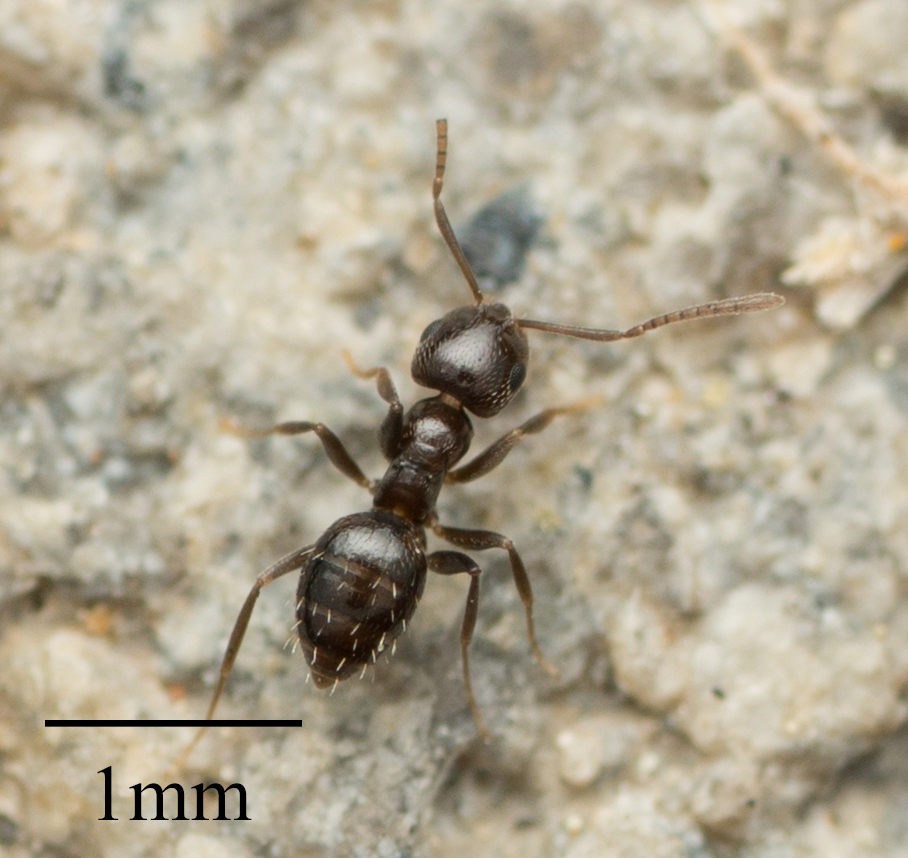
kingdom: Animalia
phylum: Arthropoda
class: Insecta
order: Hymenoptera
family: Formicidae
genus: Brachymyrmex
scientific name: Brachymyrmex patagonicus
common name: Dark rover ant
